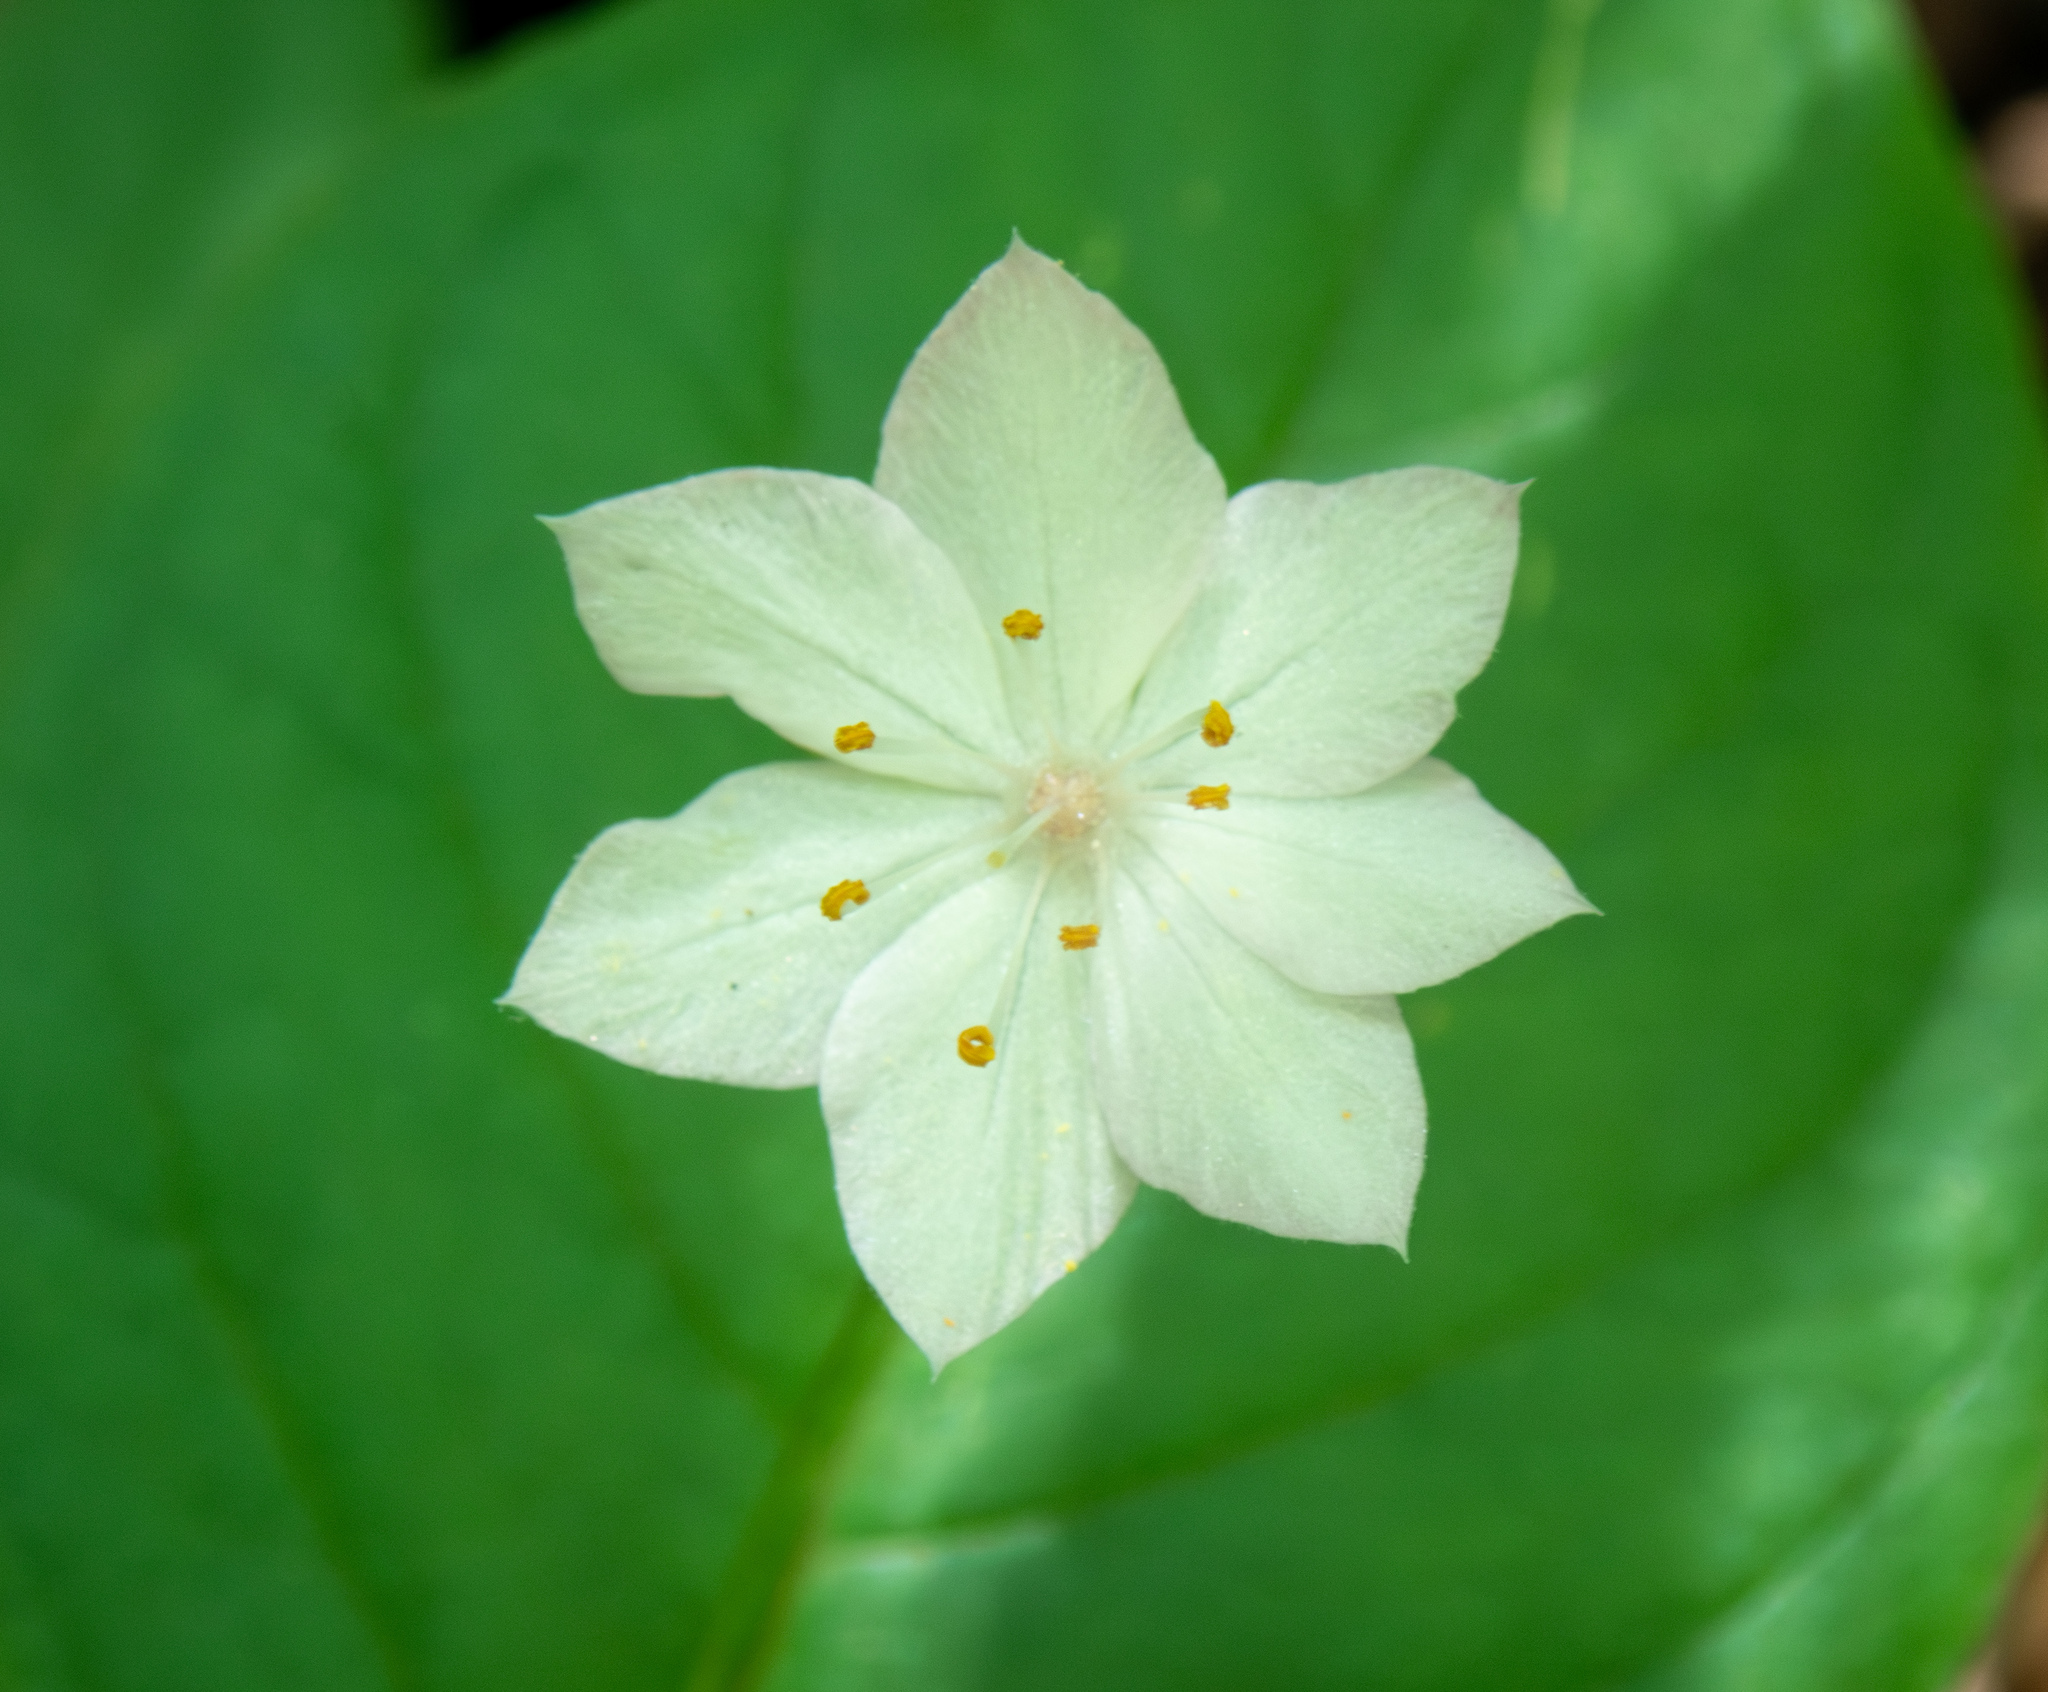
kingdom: Plantae
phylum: Tracheophyta
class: Magnoliopsida
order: Ericales
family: Primulaceae
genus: Lysimachia
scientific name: Lysimachia latifolia
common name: Pacific starflower
